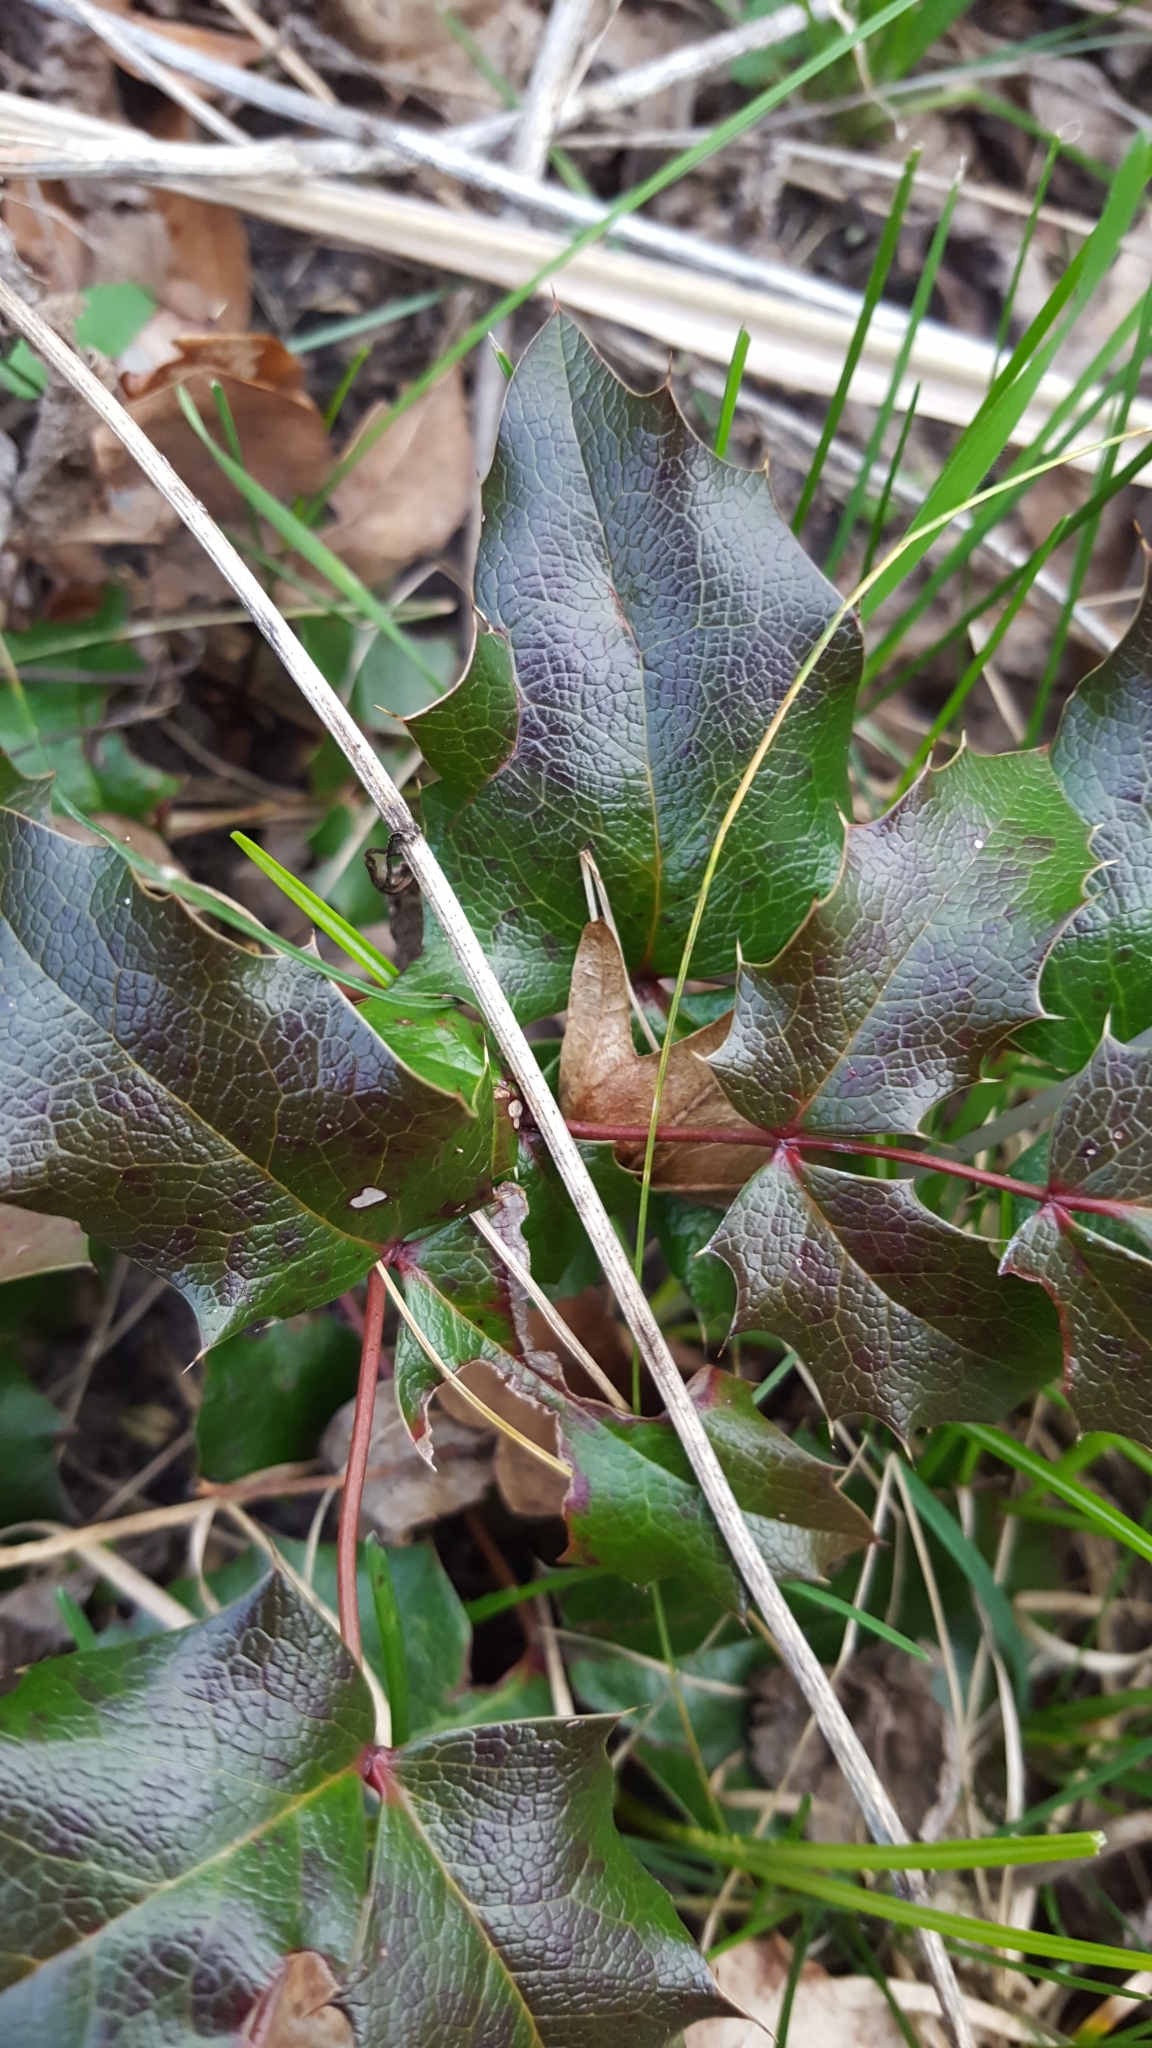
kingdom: Plantae
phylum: Tracheophyta
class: Magnoliopsida
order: Ranunculales
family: Berberidaceae
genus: Mahonia
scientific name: Mahonia aquifolium
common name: Oregon-grape
